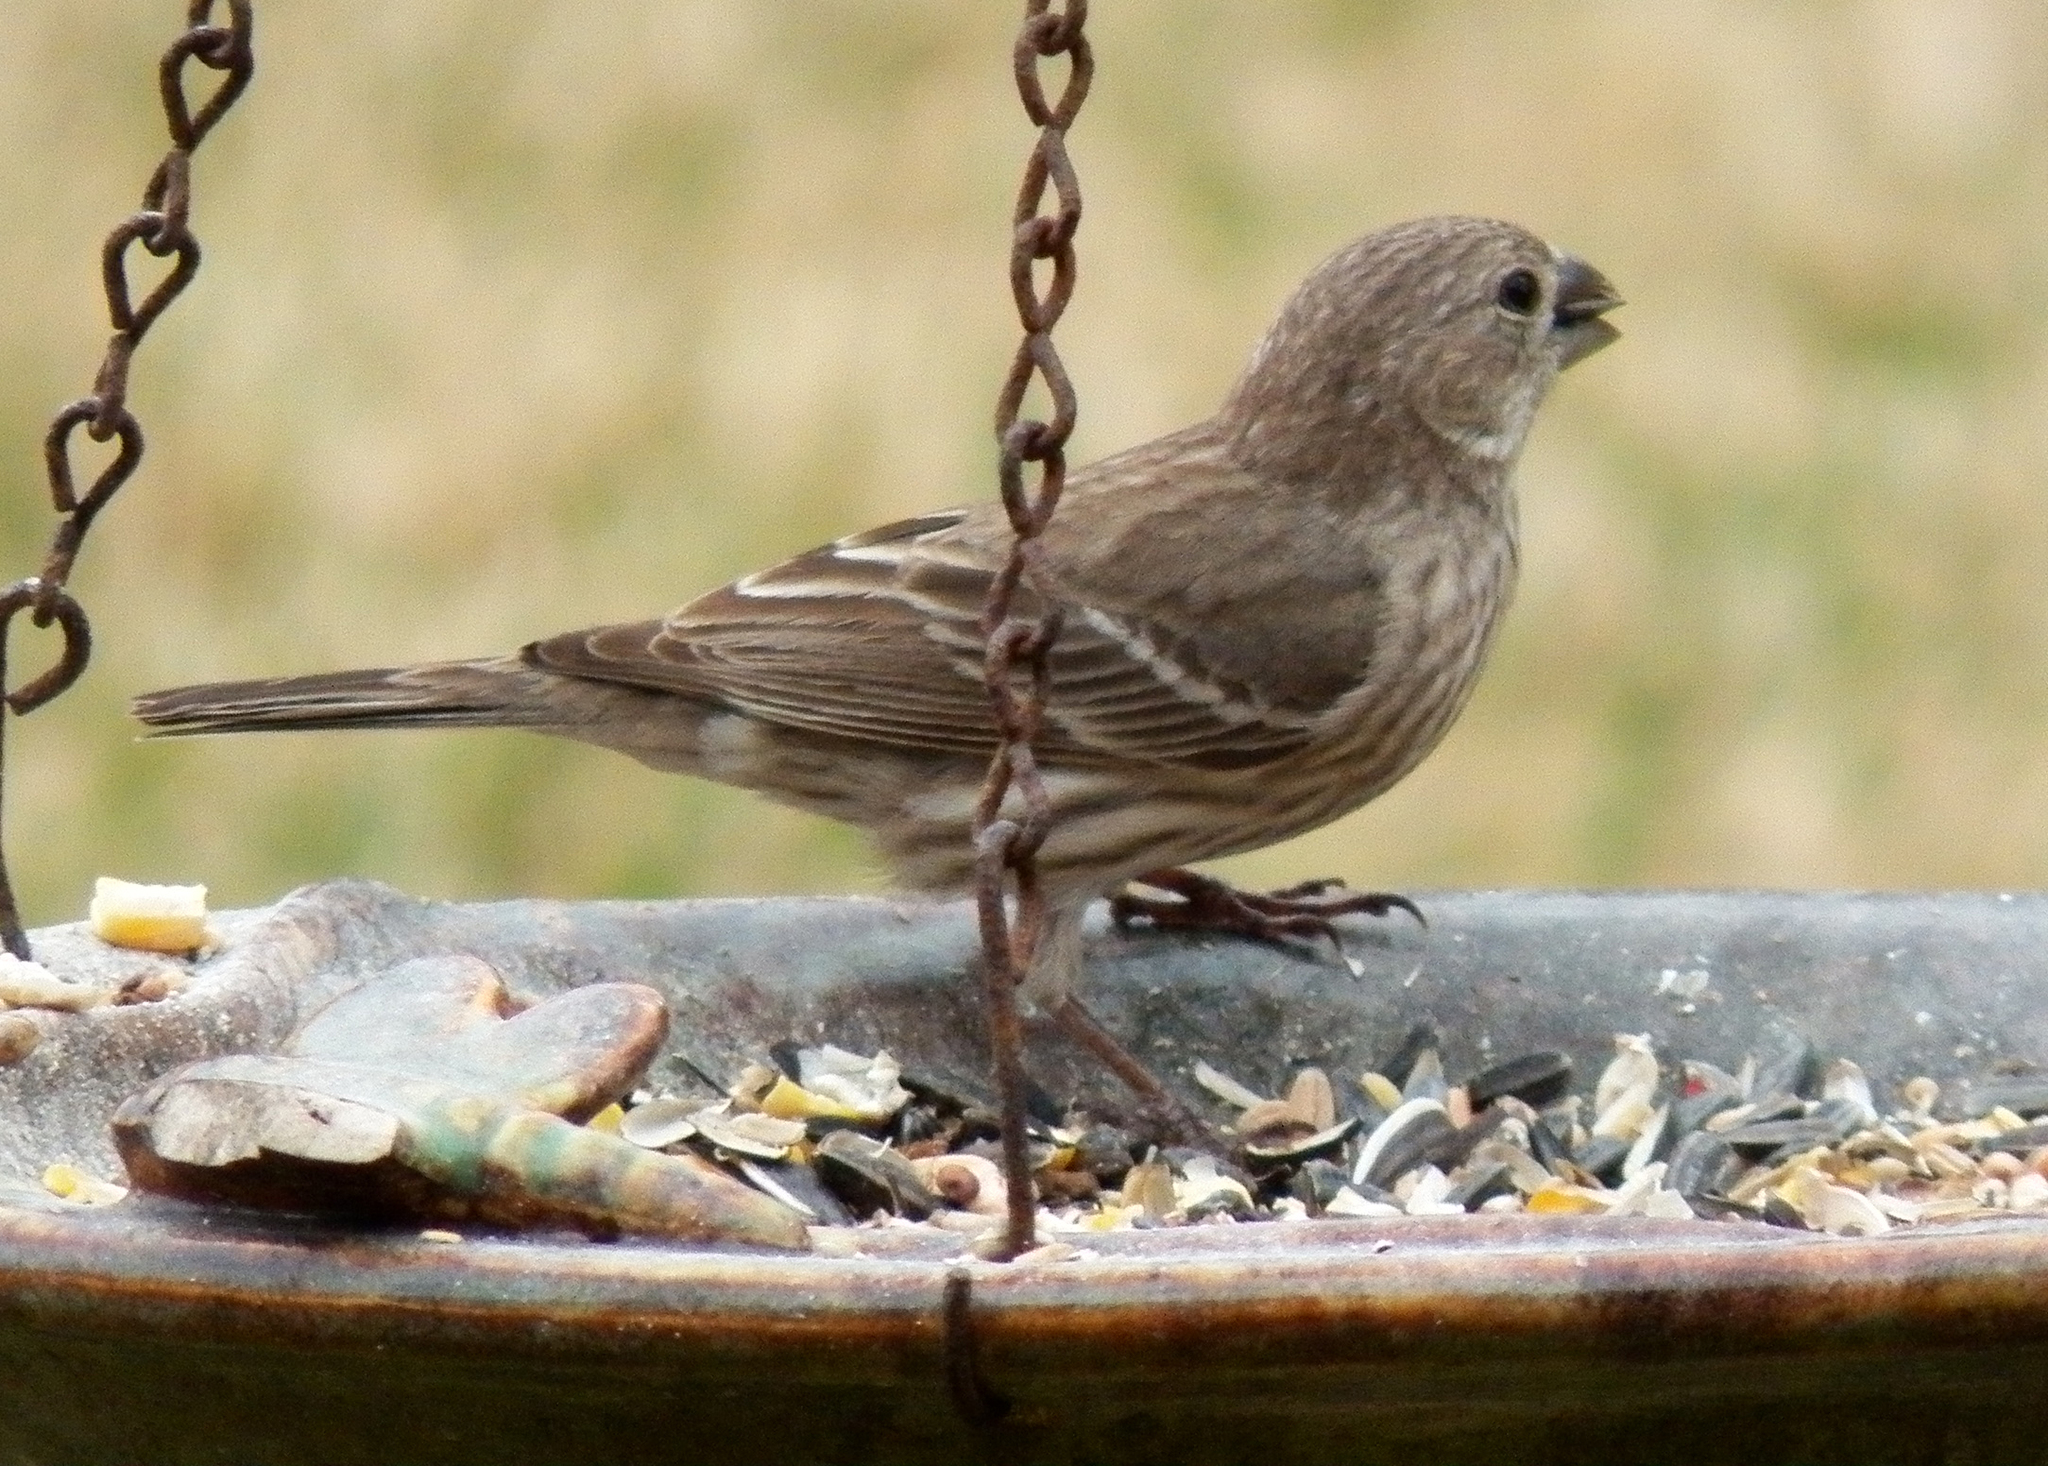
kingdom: Animalia
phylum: Chordata
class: Aves
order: Passeriformes
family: Fringillidae
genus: Haemorhous
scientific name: Haemorhous mexicanus
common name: House finch
